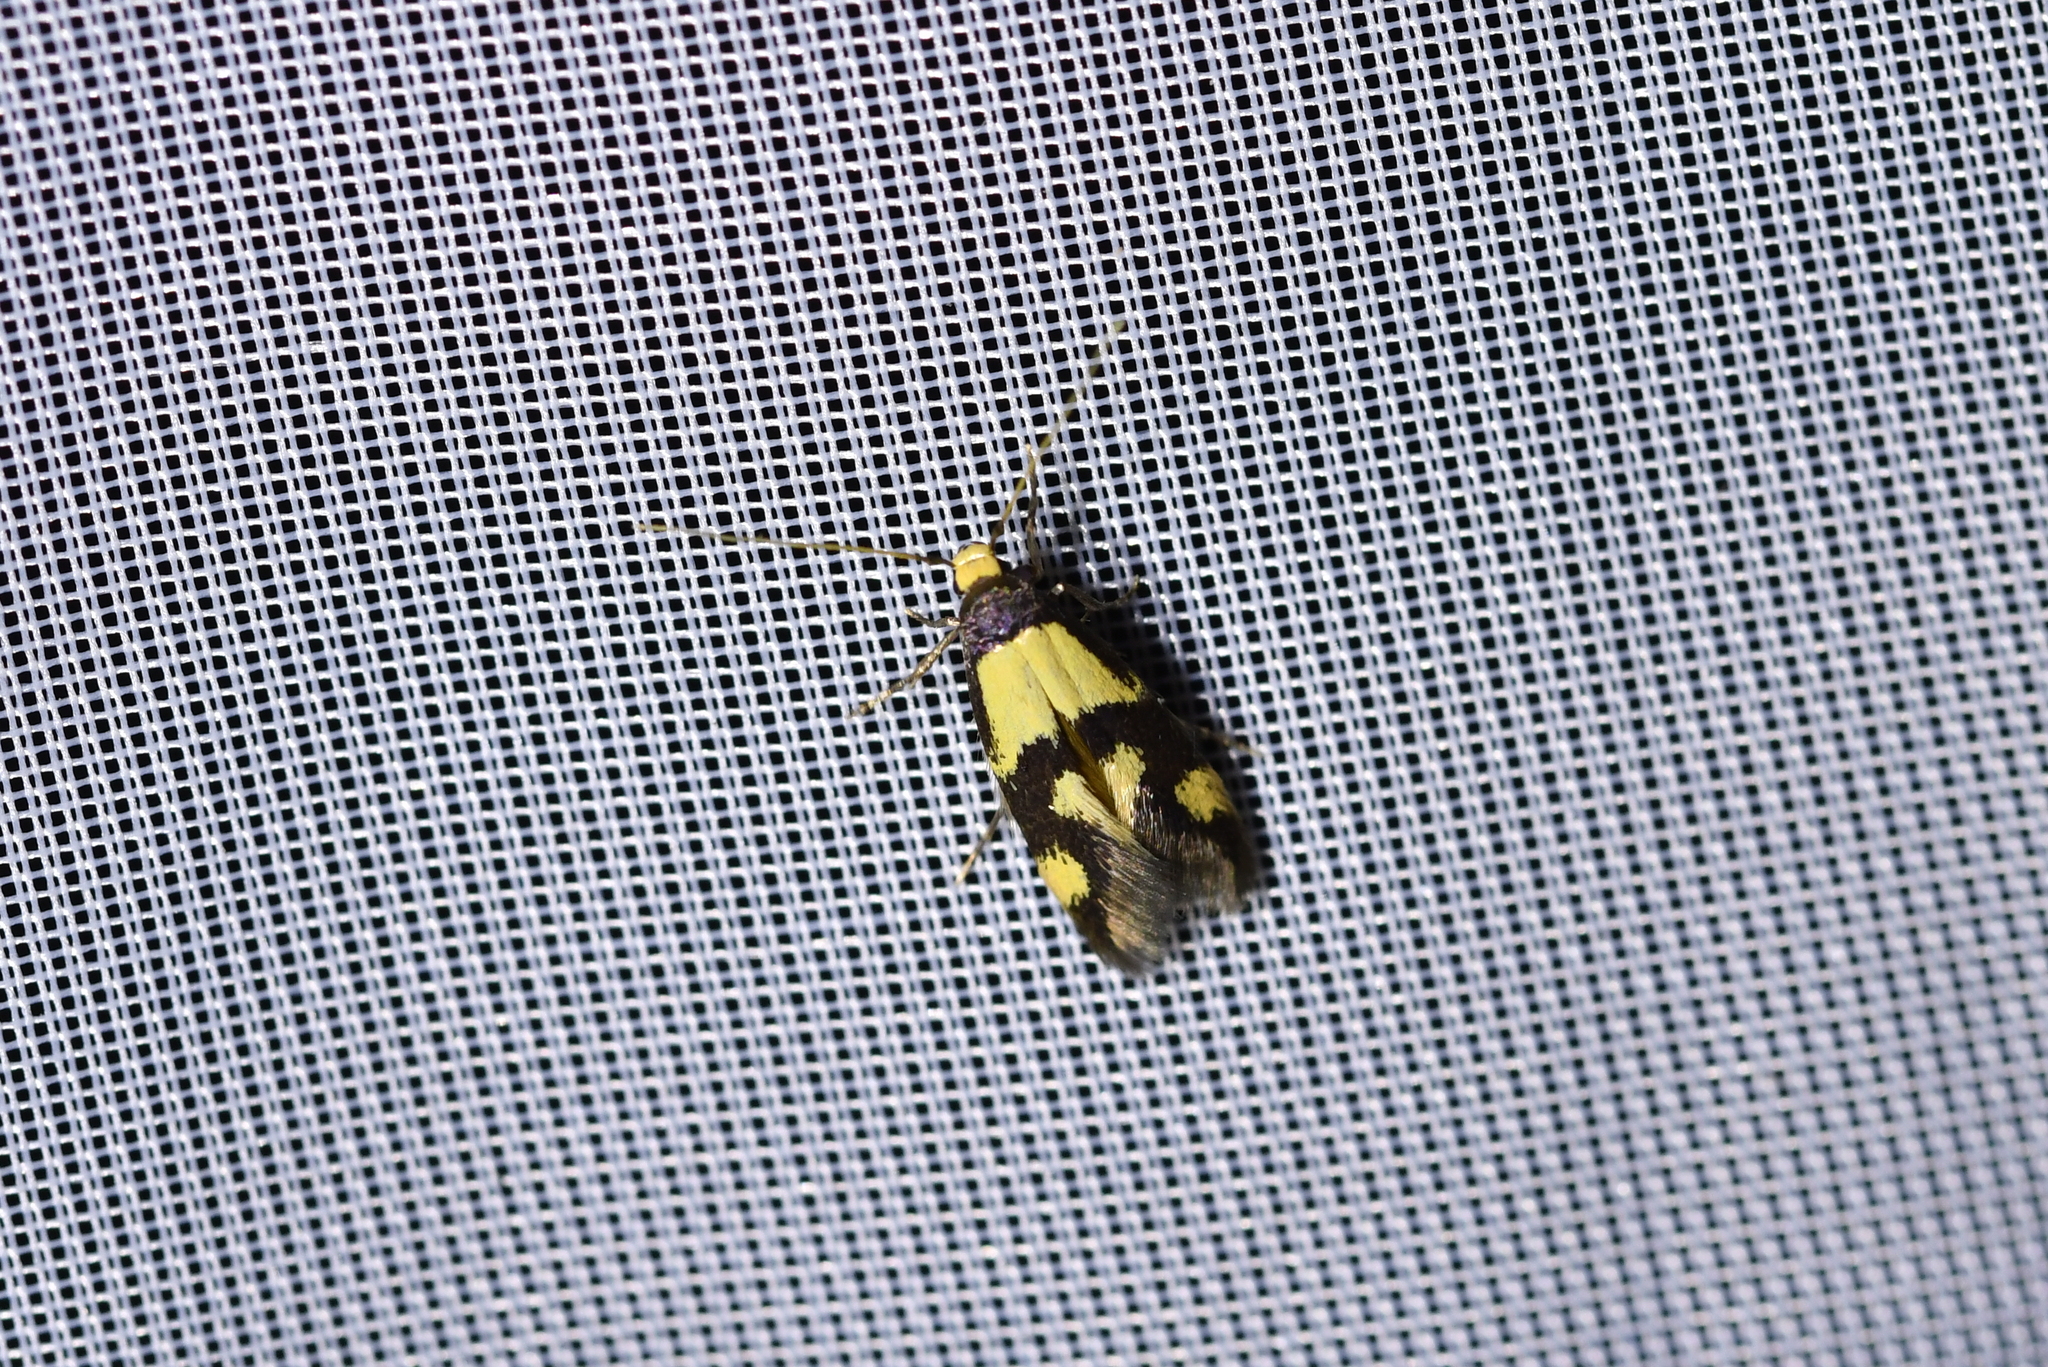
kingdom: Animalia
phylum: Arthropoda
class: Insecta
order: Lepidoptera
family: Tineidae
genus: Opogona
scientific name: Opogona comptella
